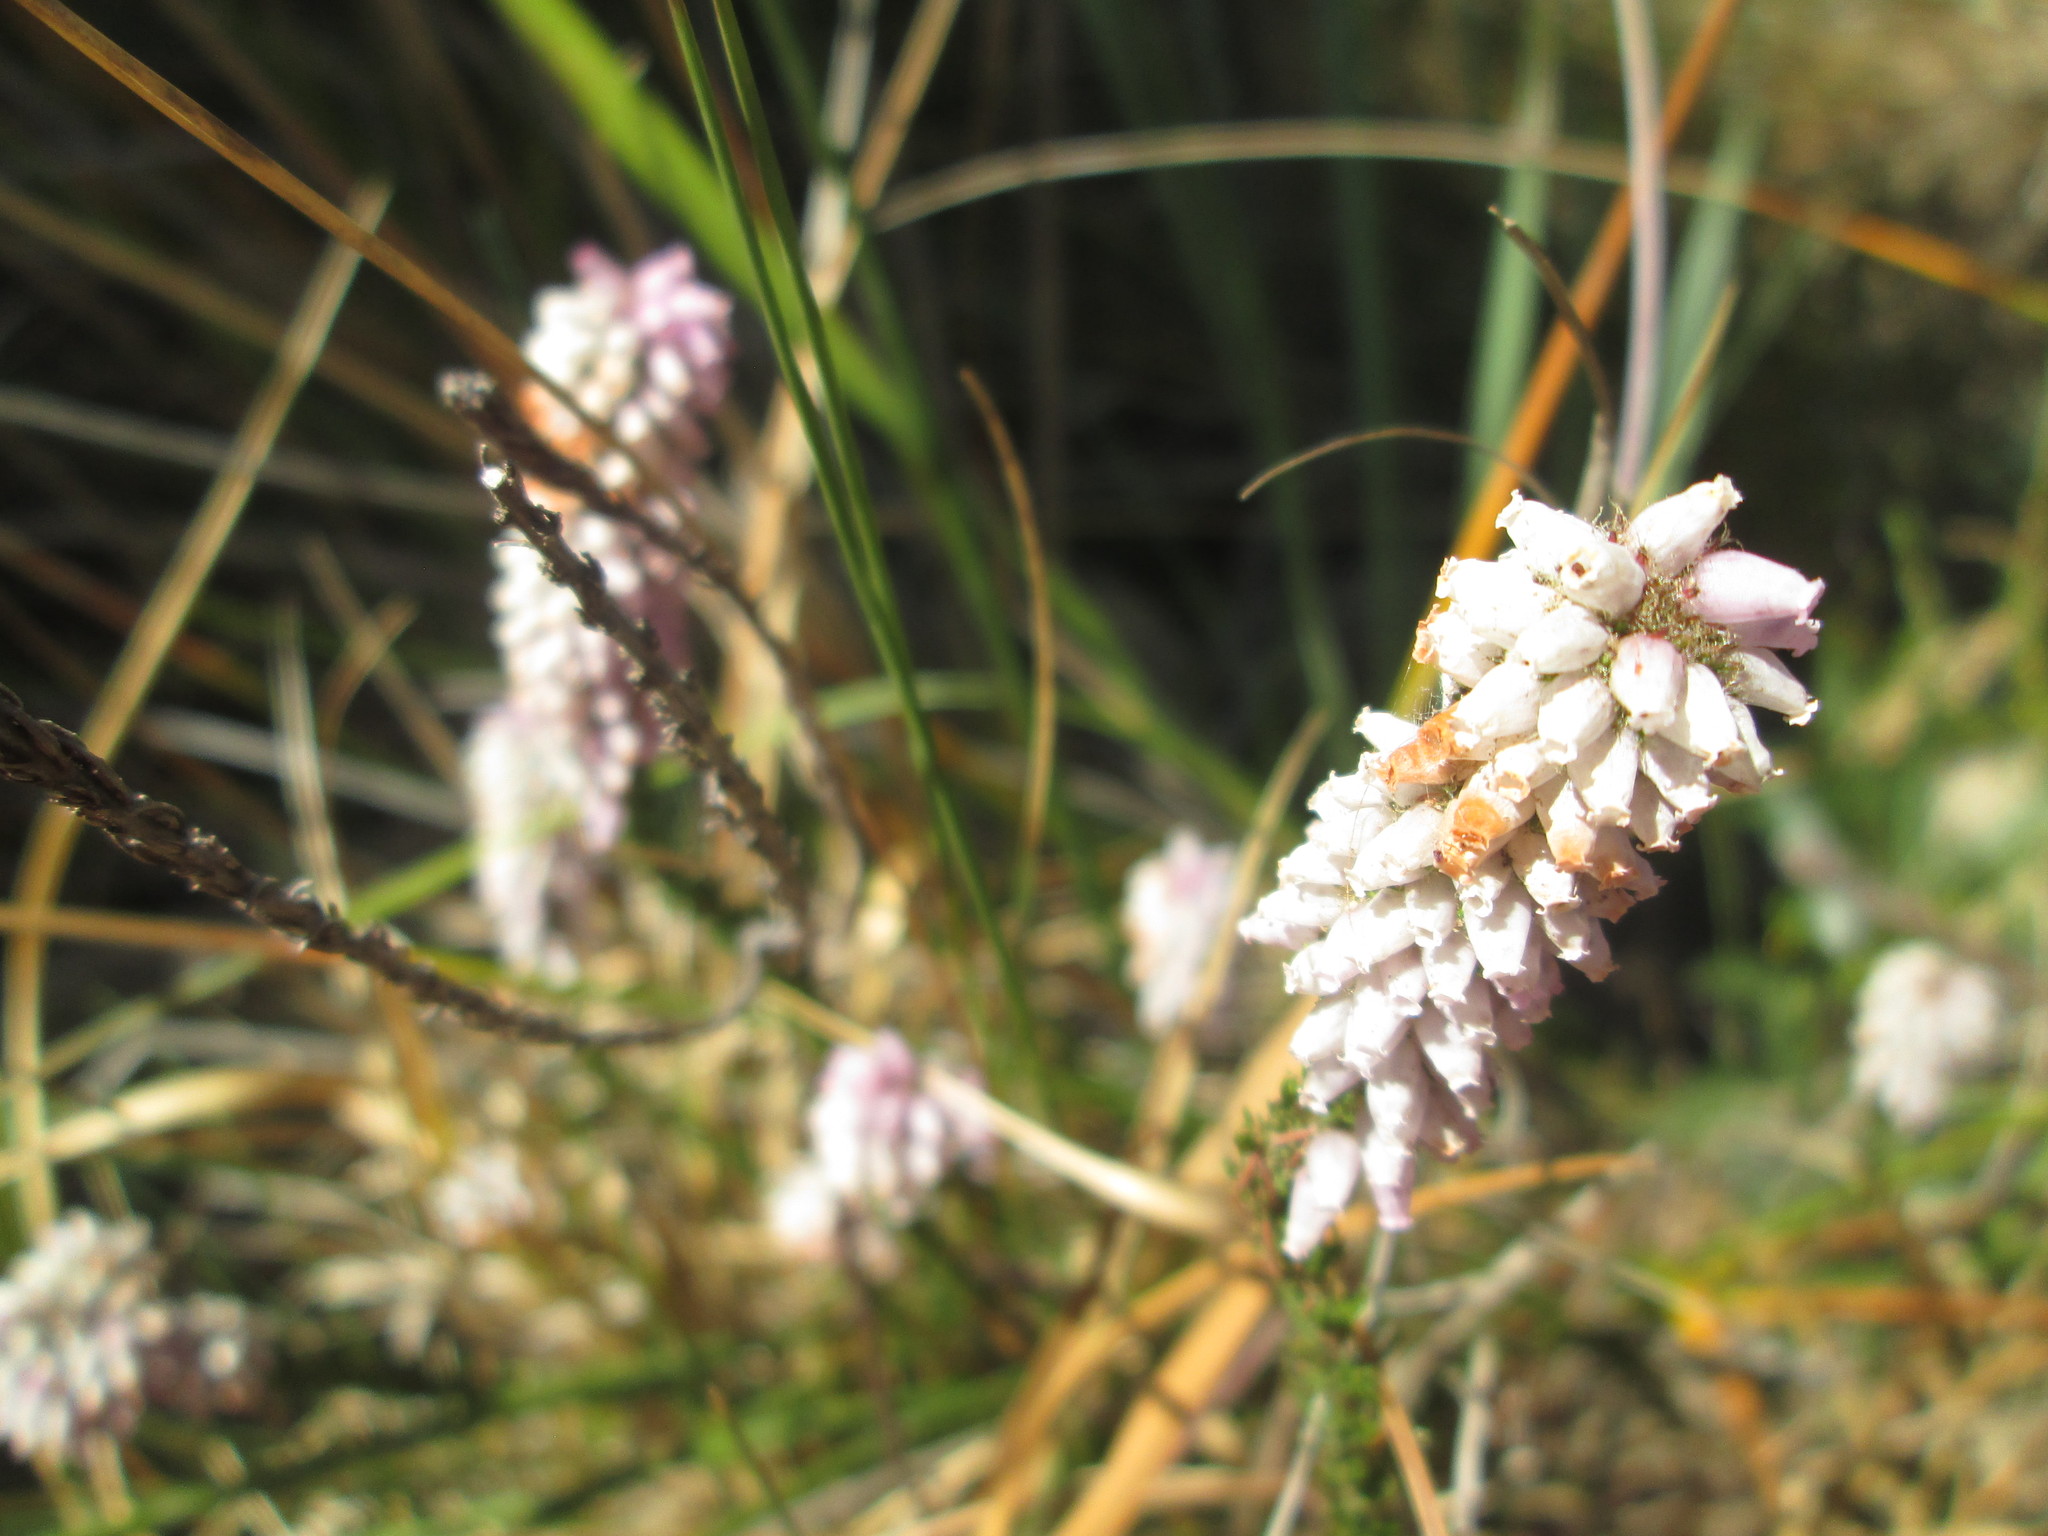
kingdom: Plantae
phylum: Tracheophyta
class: Magnoliopsida
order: Ericales
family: Ericaceae
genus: Erica
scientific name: Erica alopecurus
